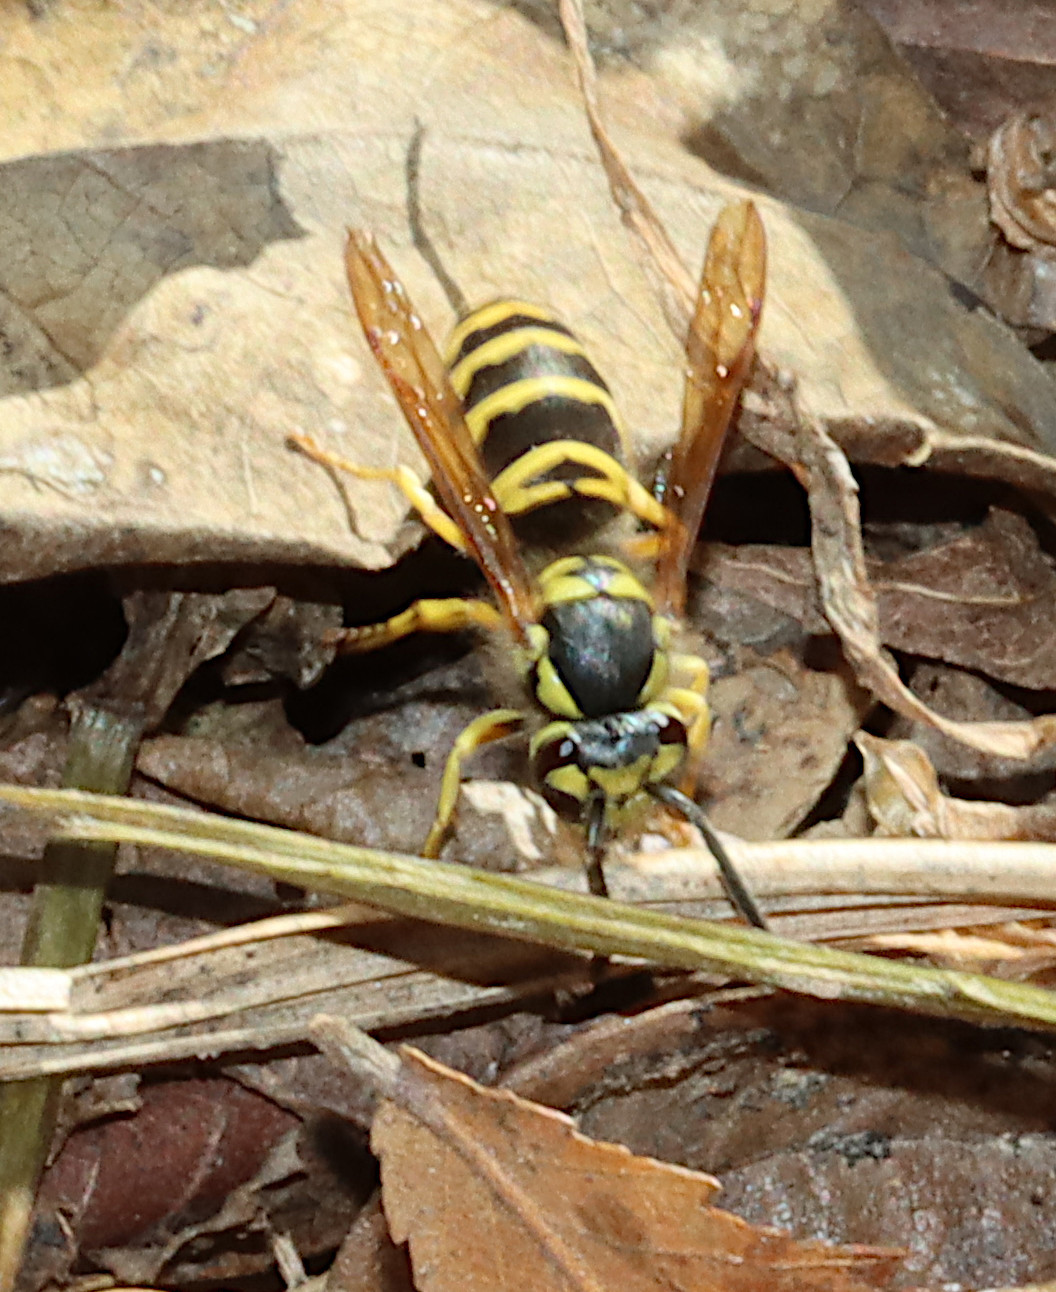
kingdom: Animalia
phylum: Arthropoda
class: Insecta
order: Hymenoptera
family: Vespidae
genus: Vespula
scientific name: Vespula maculifrons
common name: Eastern yellowjacket
